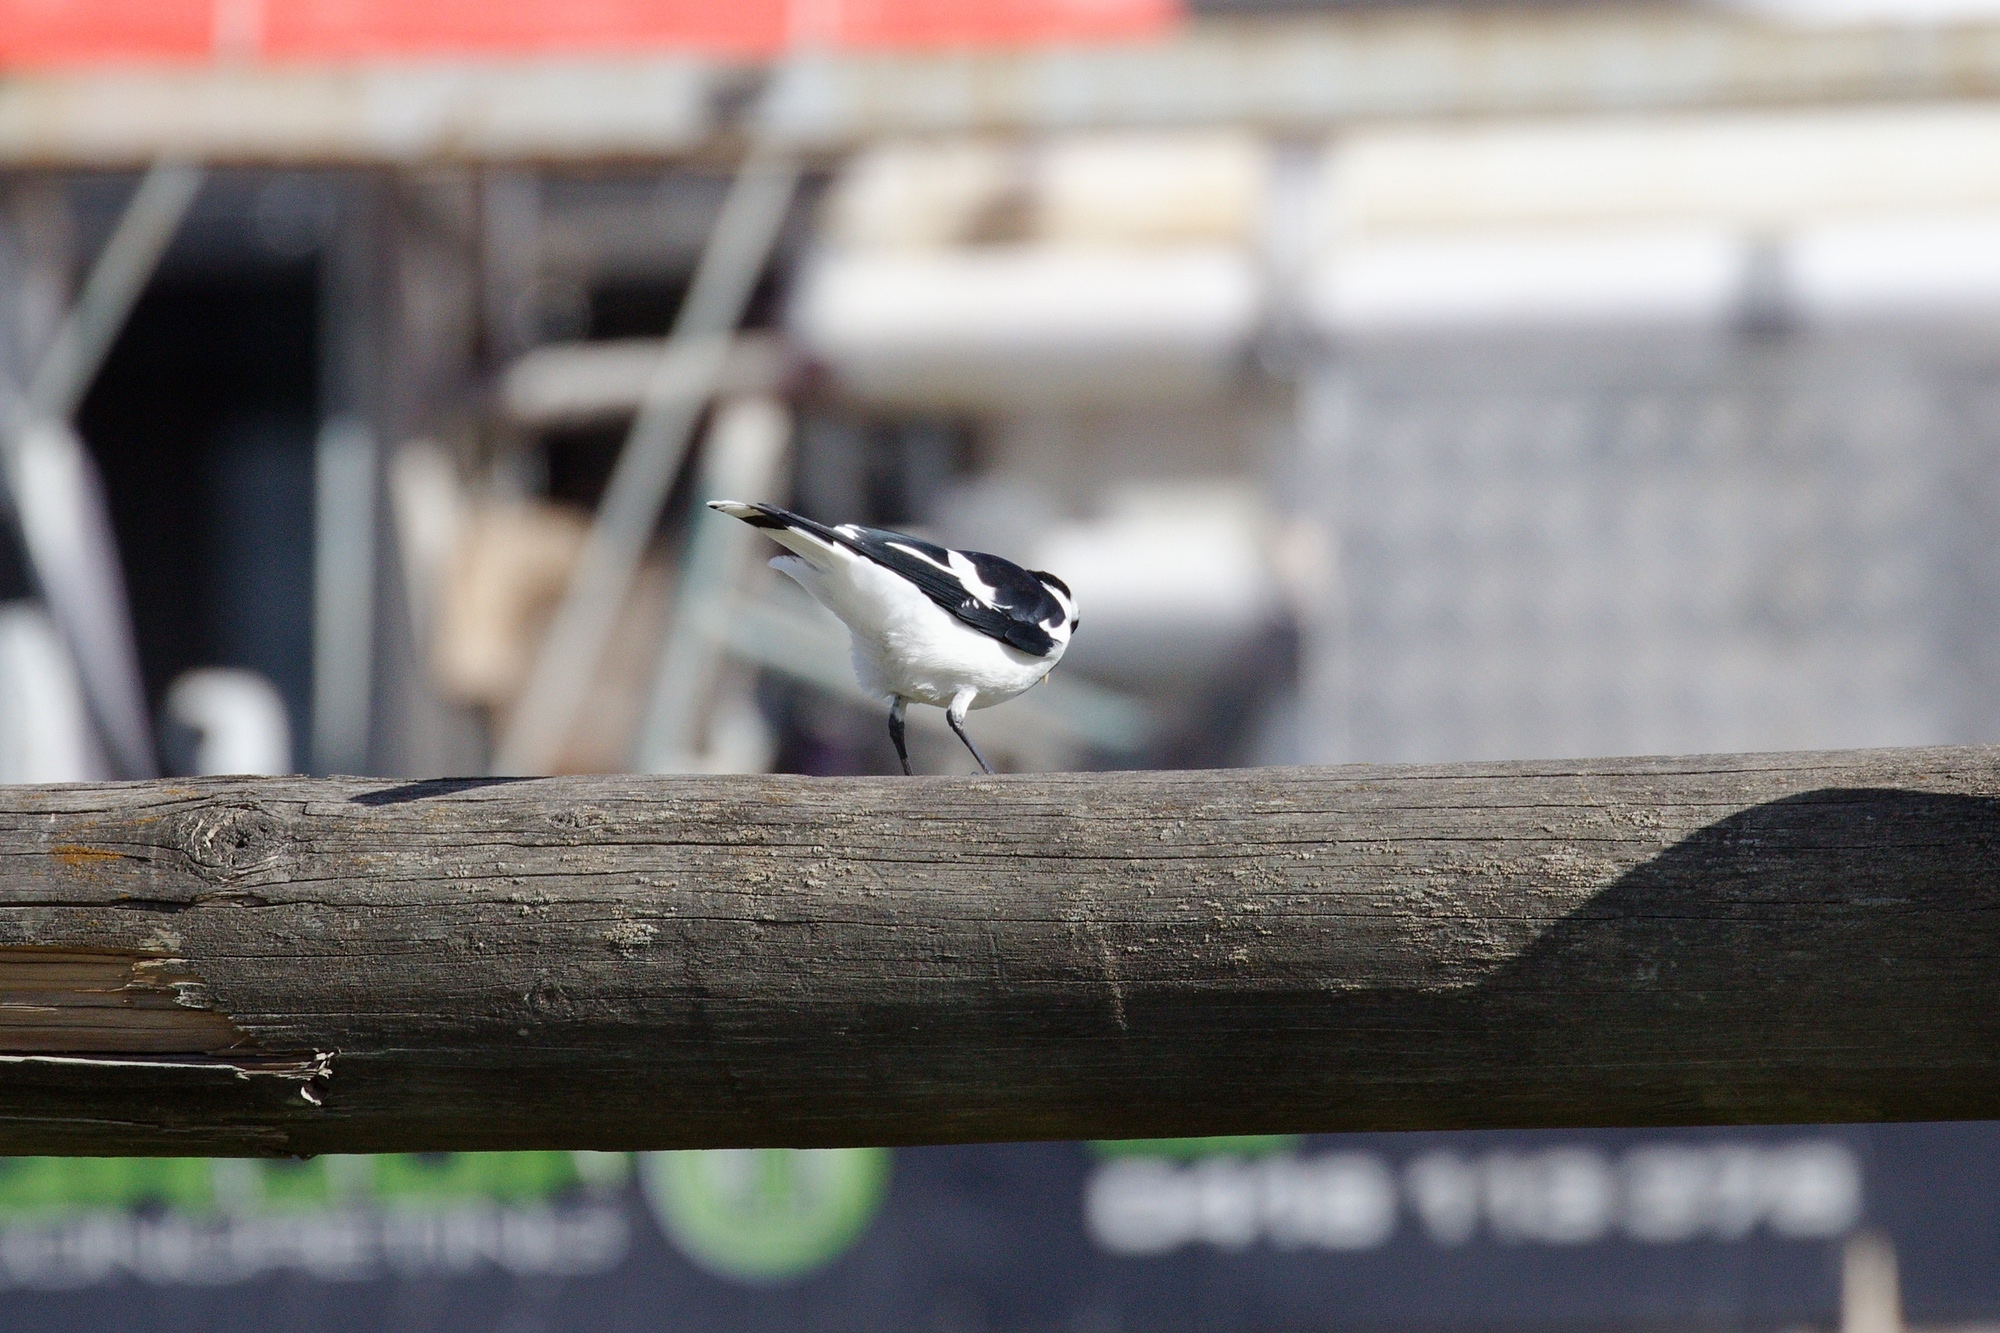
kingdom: Animalia
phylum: Chordata
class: Aves
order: Passeriformes
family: Monarchidae
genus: Grallina
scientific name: Grallina cyanoleuca
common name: Magpie-lark
